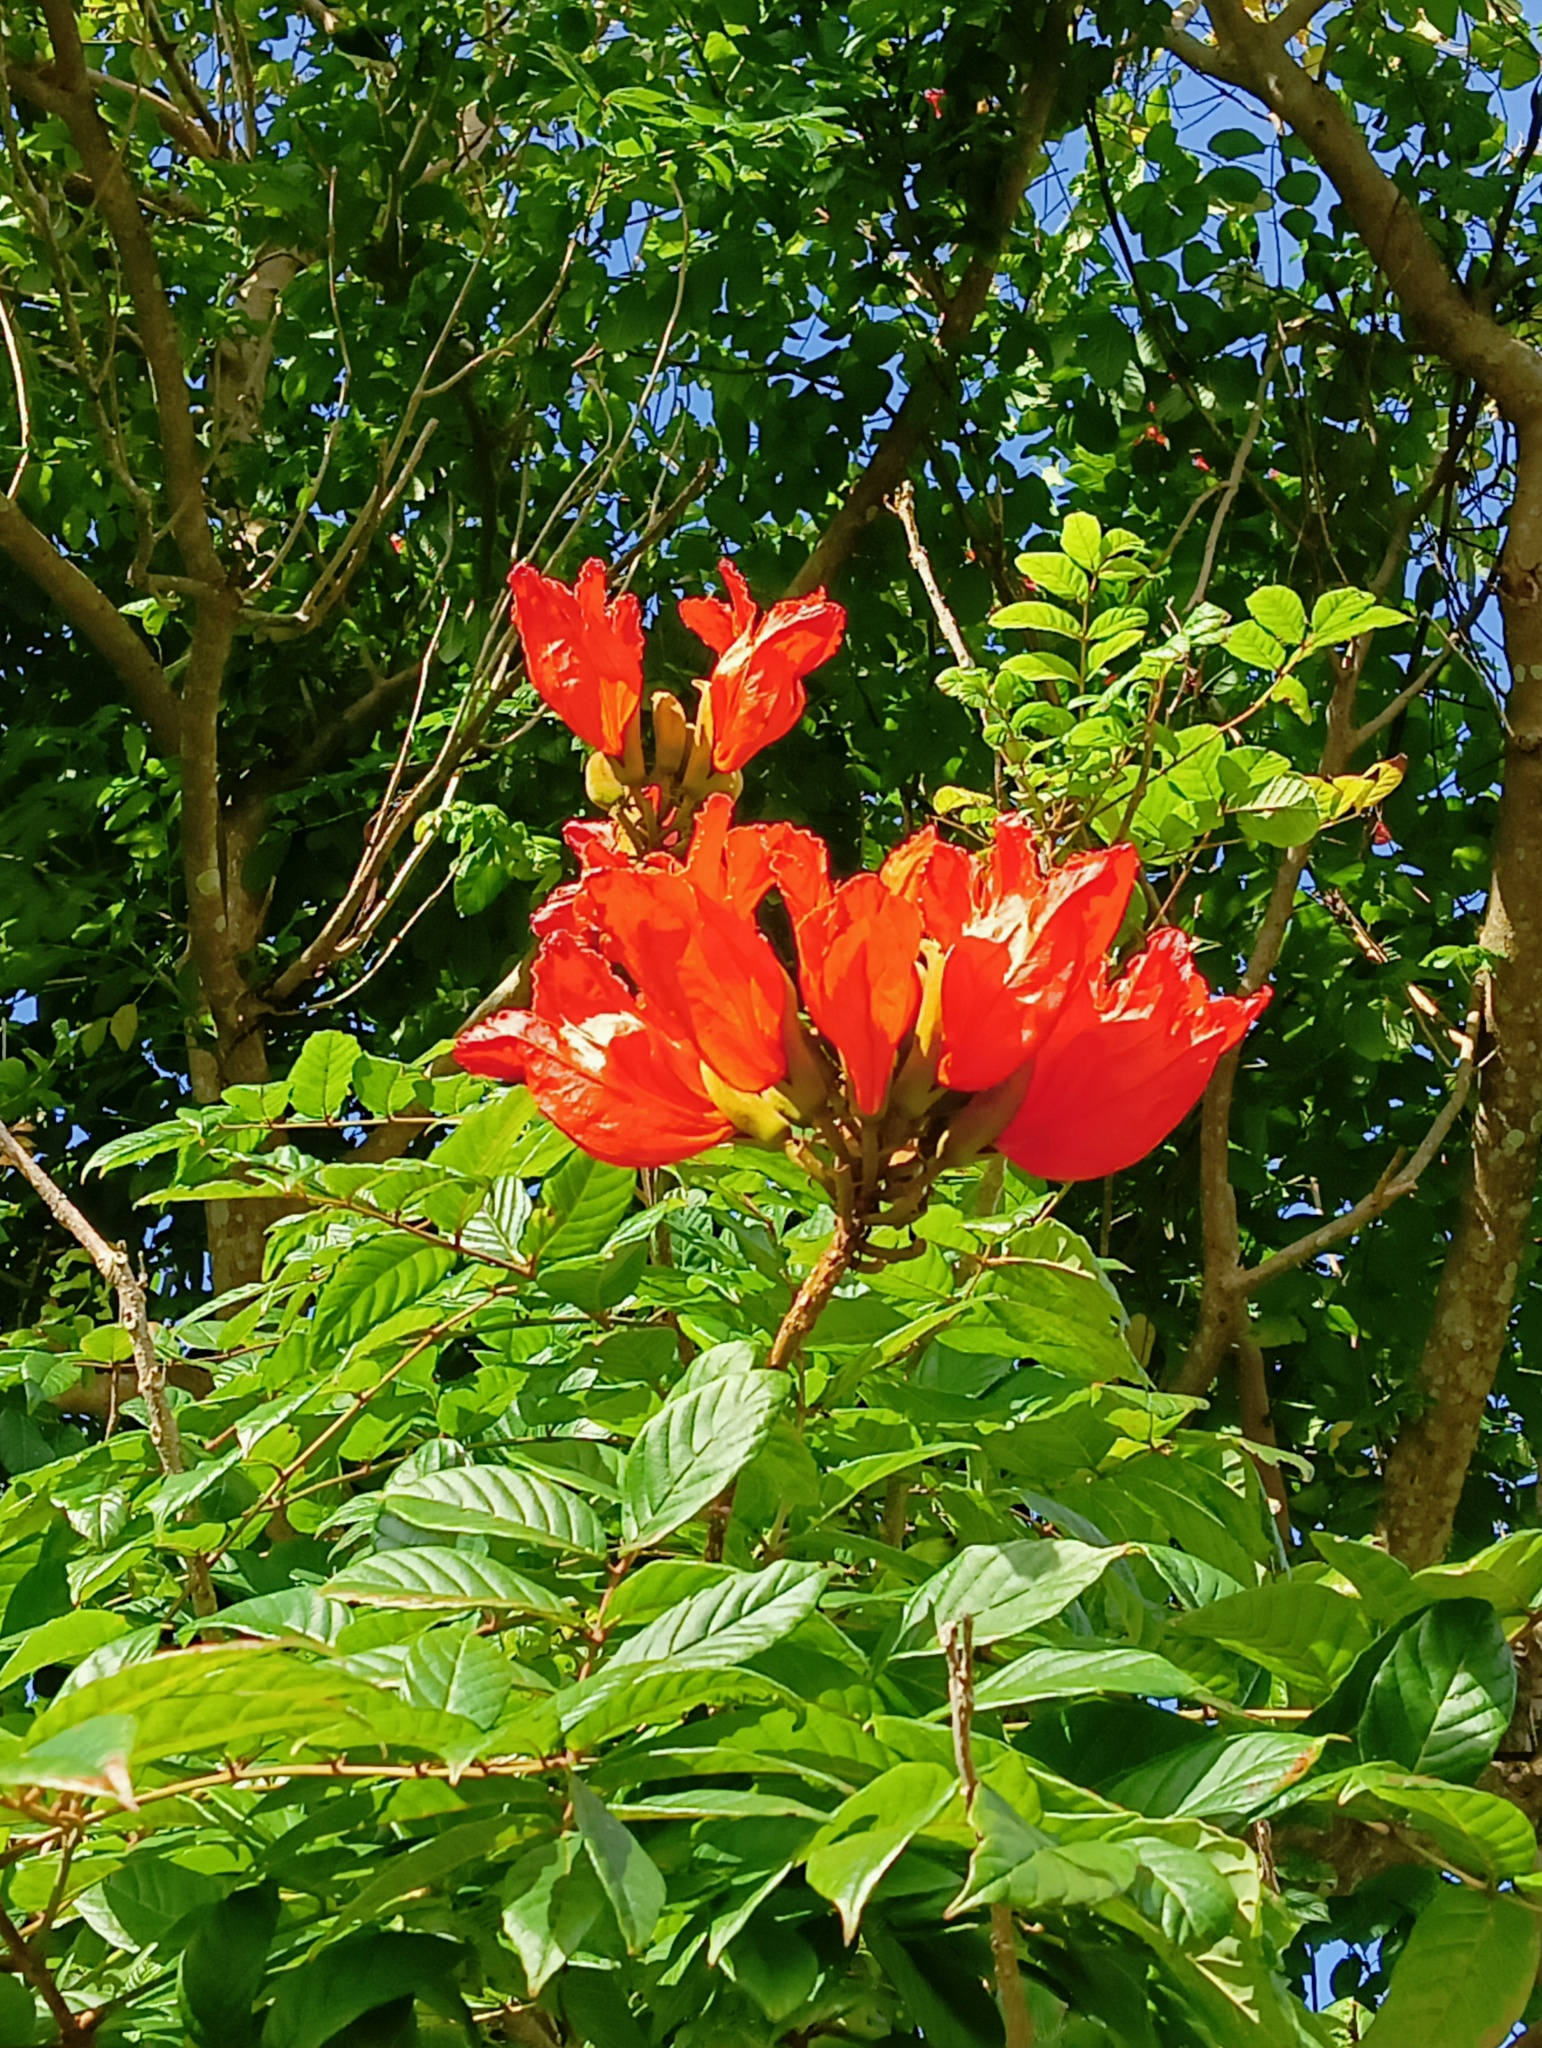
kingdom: Plantae
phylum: Tracheophyta
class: Magnoliopsida
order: Lamiales
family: Bignoniaceae
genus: Spathodea
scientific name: Spathodea campanulata
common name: African tuliptree
